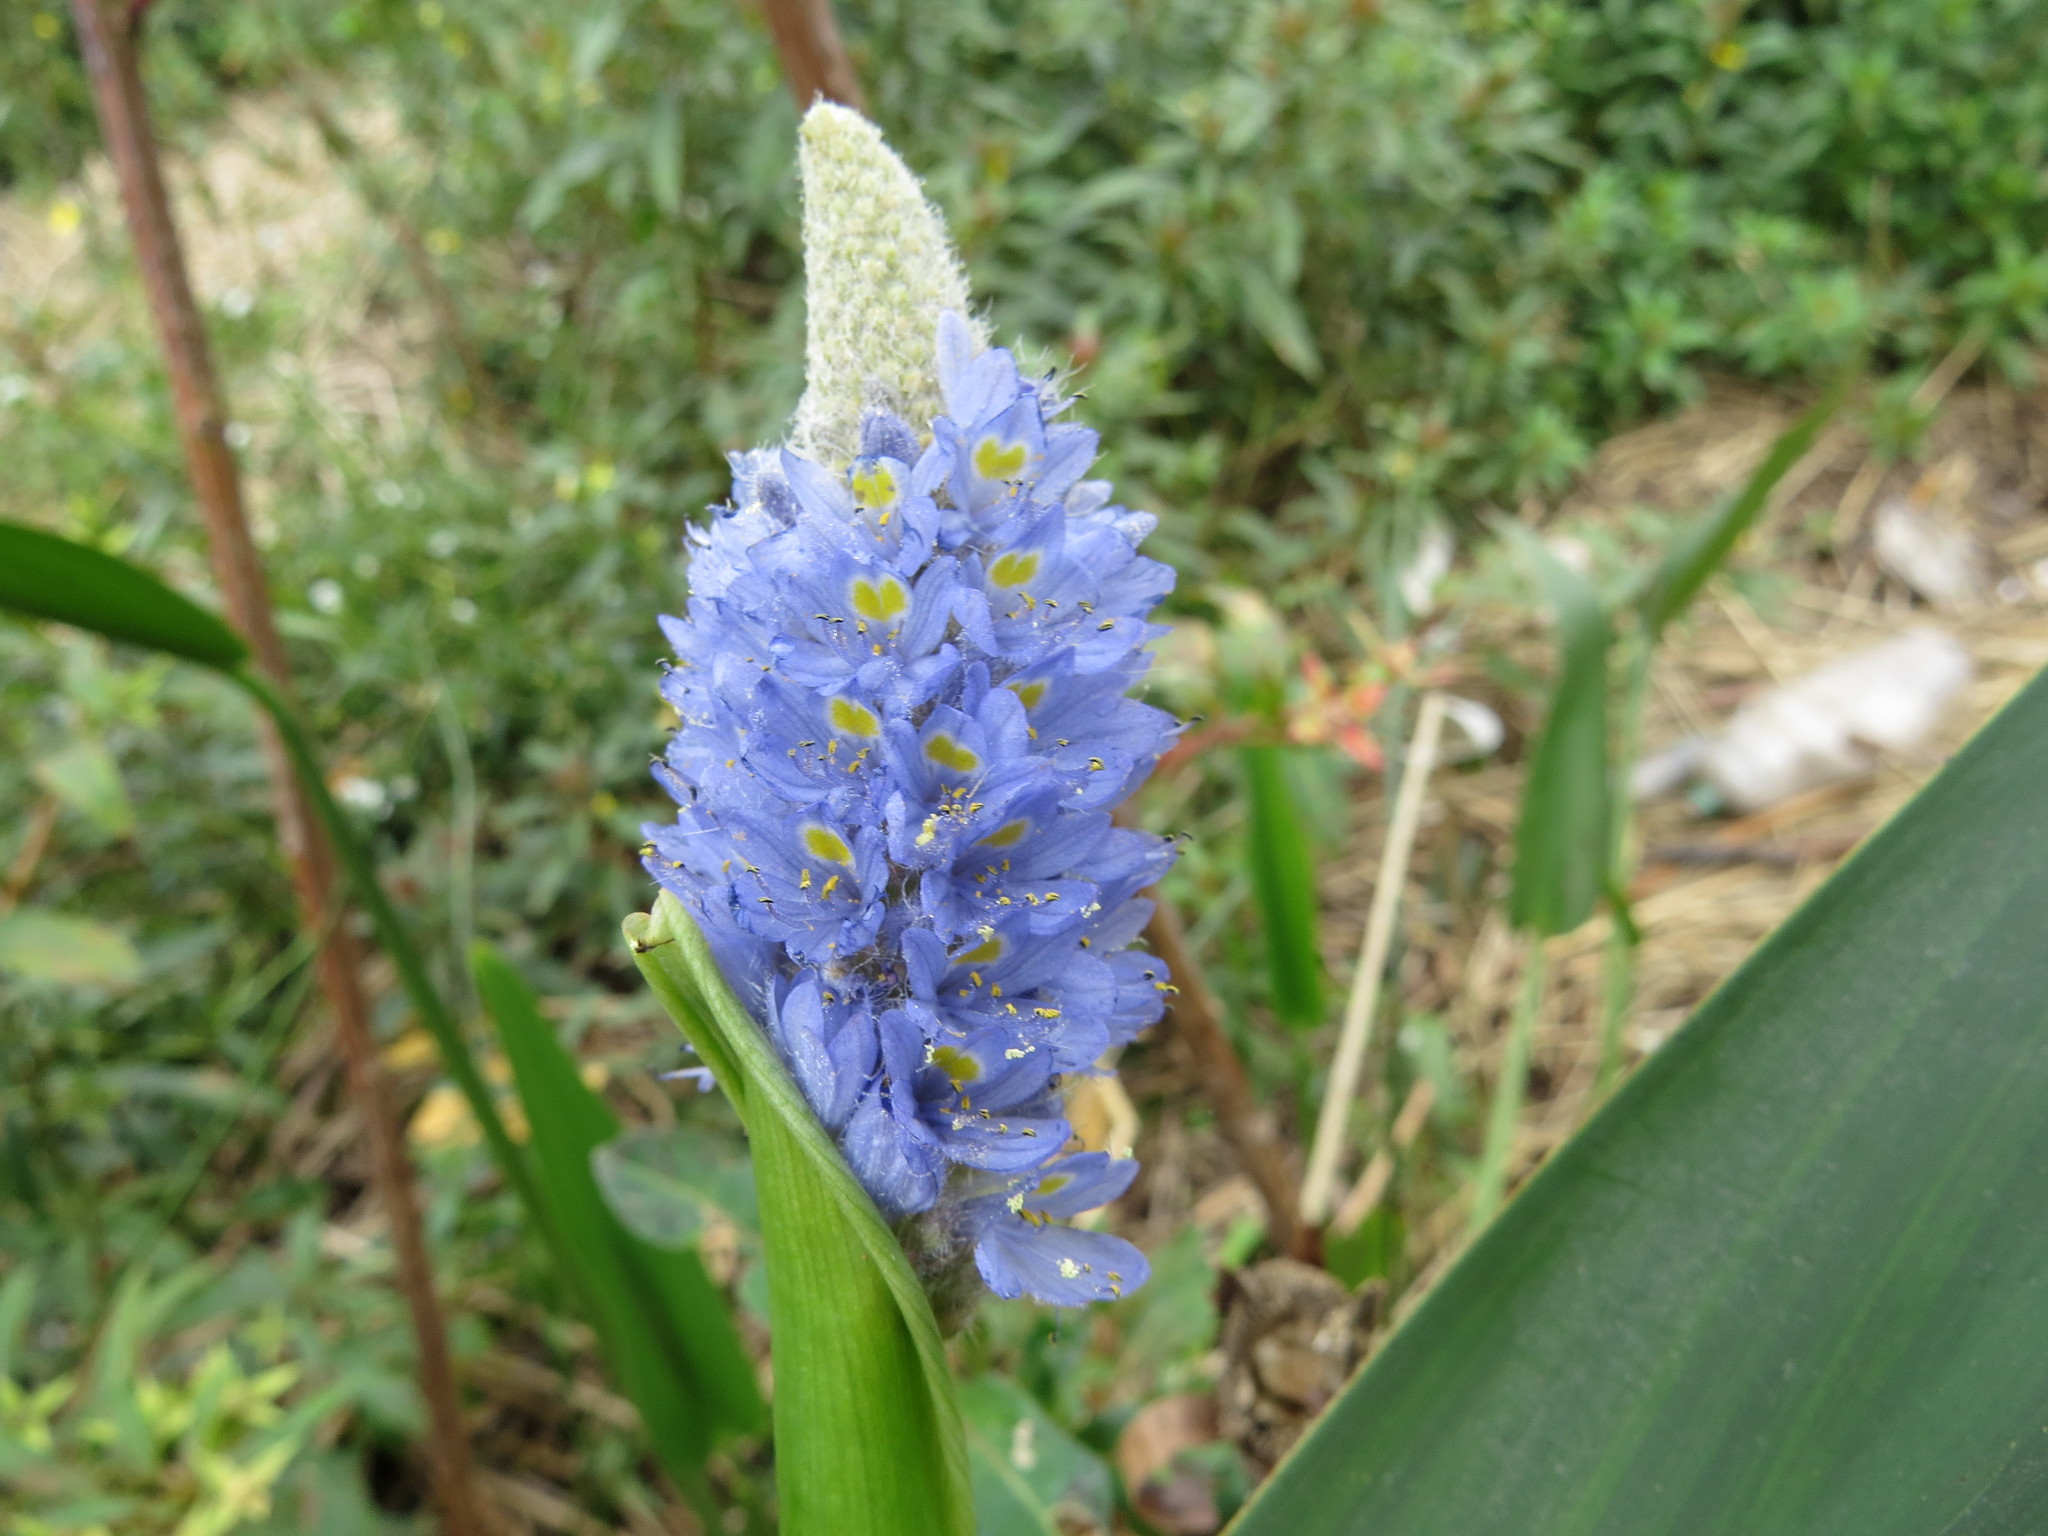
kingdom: Plantae
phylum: Tracheophyta
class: Liliopsida
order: Commelinales
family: Pontederiaceae
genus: Pontederia
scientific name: Pontederia cordata
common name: Pickerelweed
